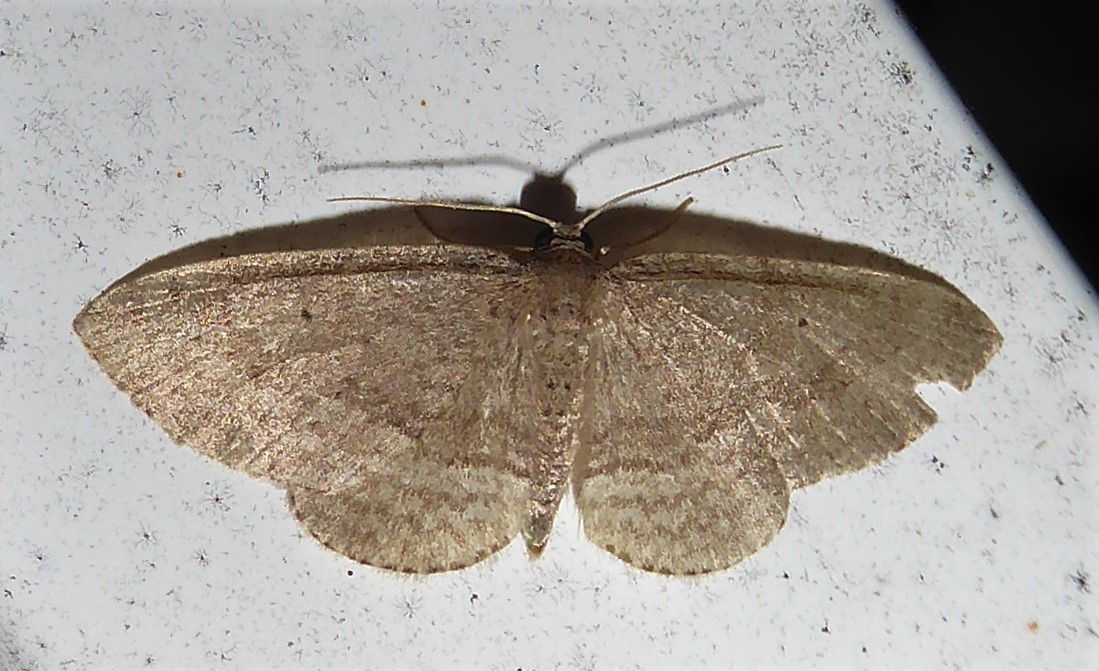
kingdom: Animalia
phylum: Arthropoda
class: Insecta
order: Lepidoptera
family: Geometridae
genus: Poecilasthena
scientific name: Poecilasthena schistaria
